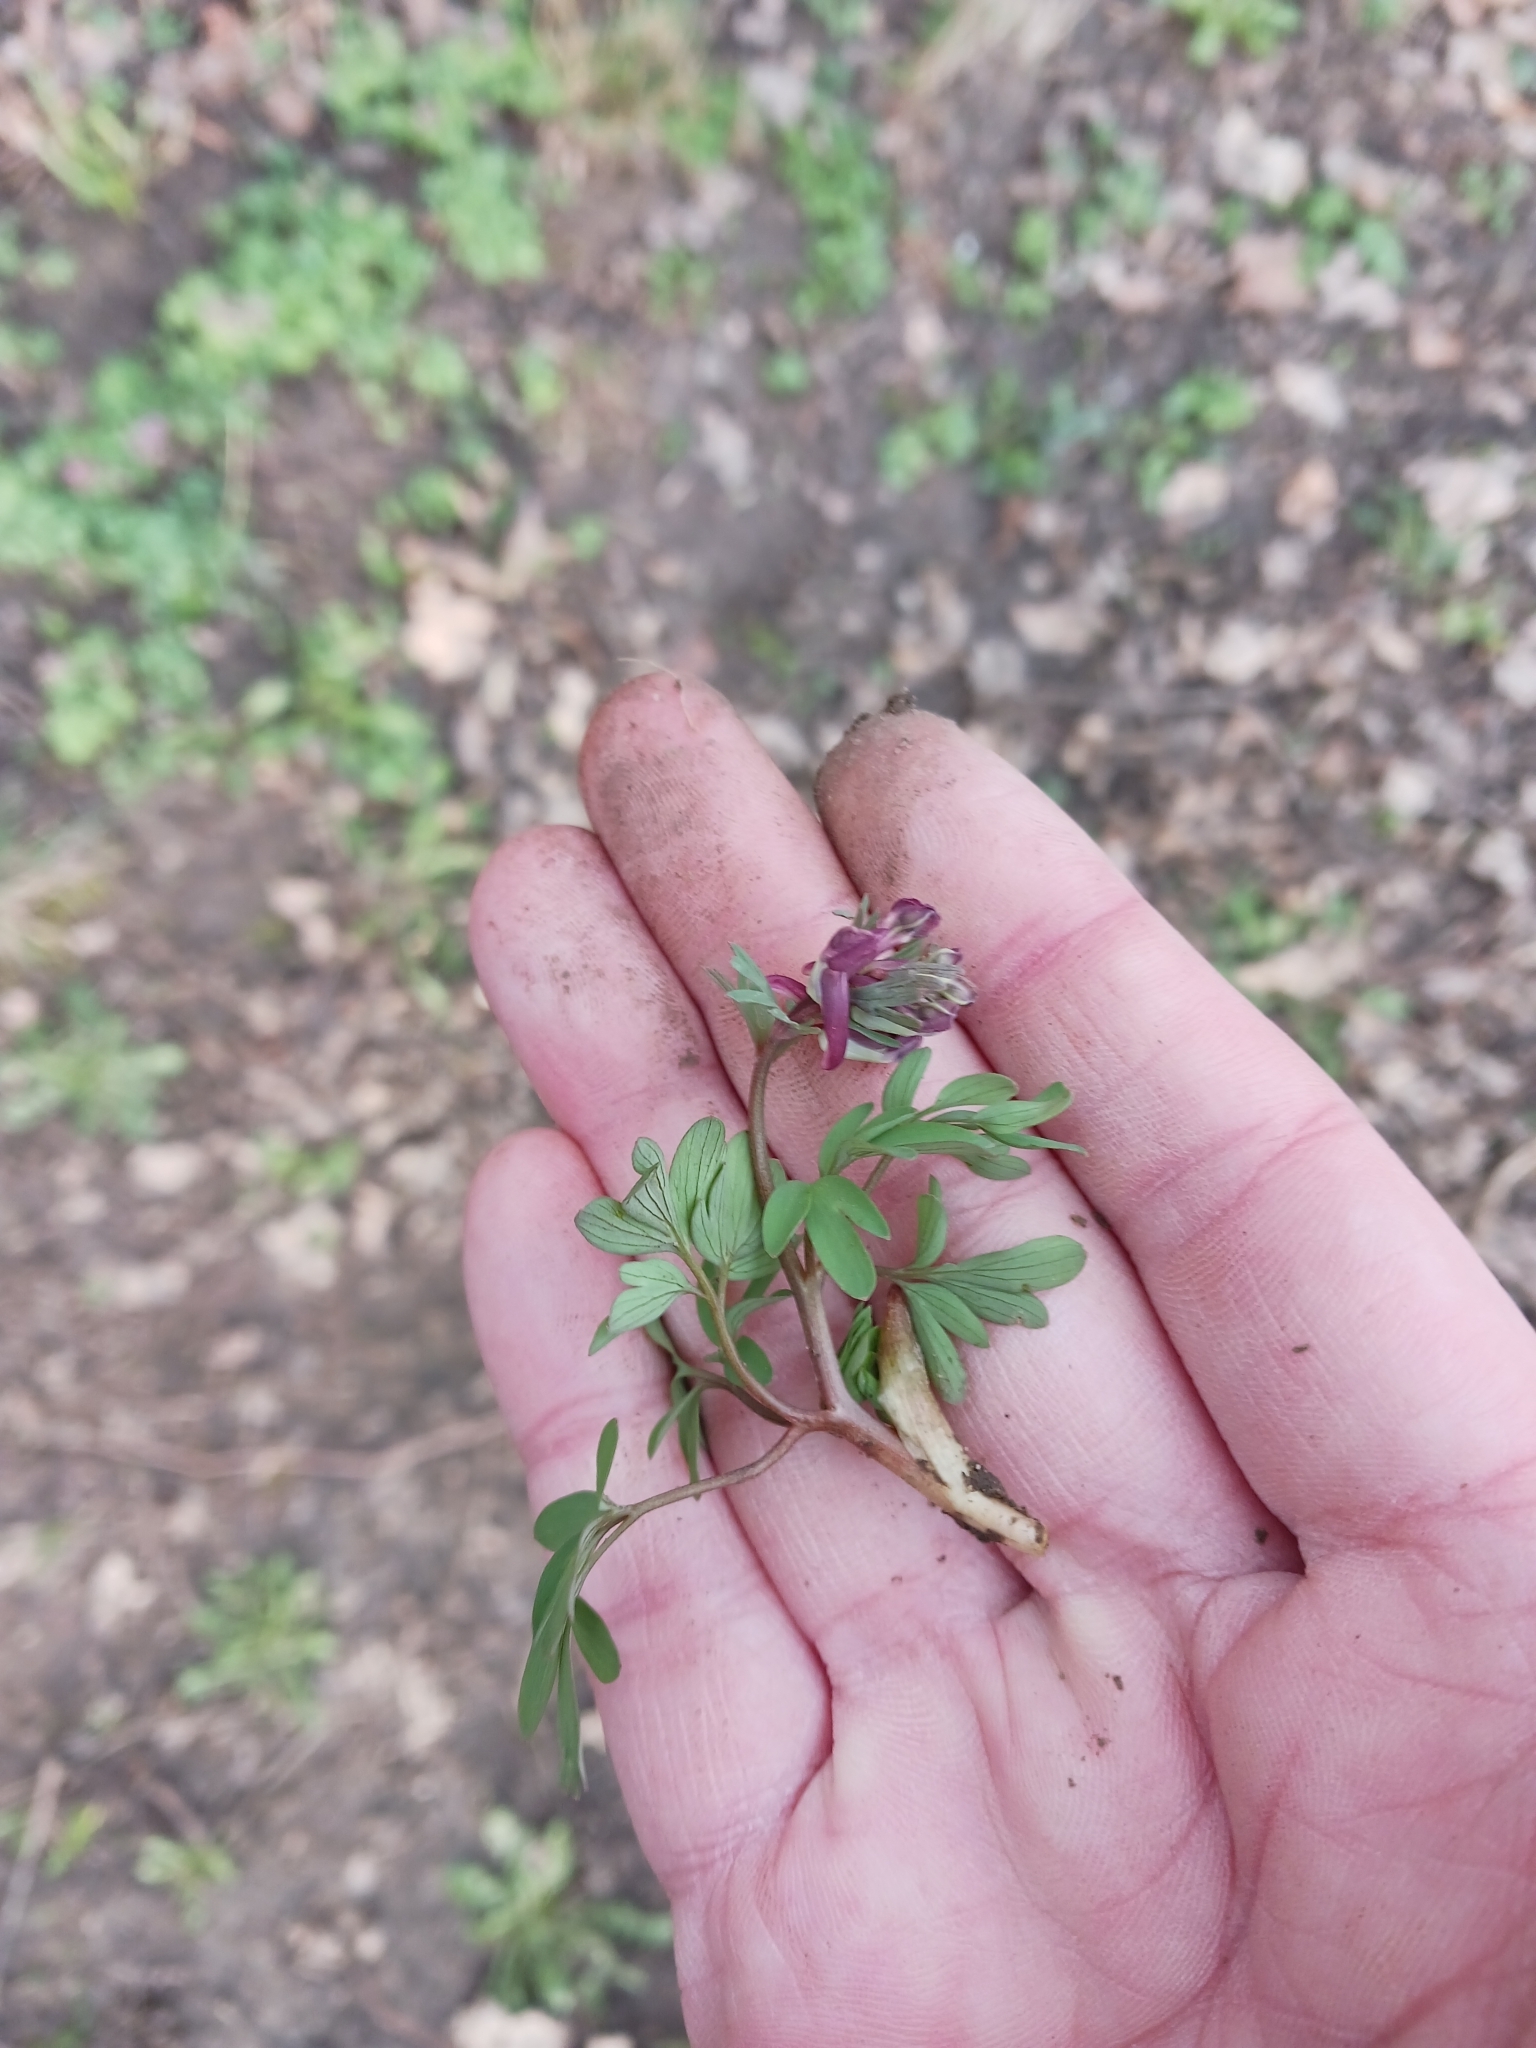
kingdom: Plantae
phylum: Tracheophyta
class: Magnoliopsida
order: Ranunculales
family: Papaveraceae
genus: Corydalis
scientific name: Corydalis solida
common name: Bird-in-a-bush
